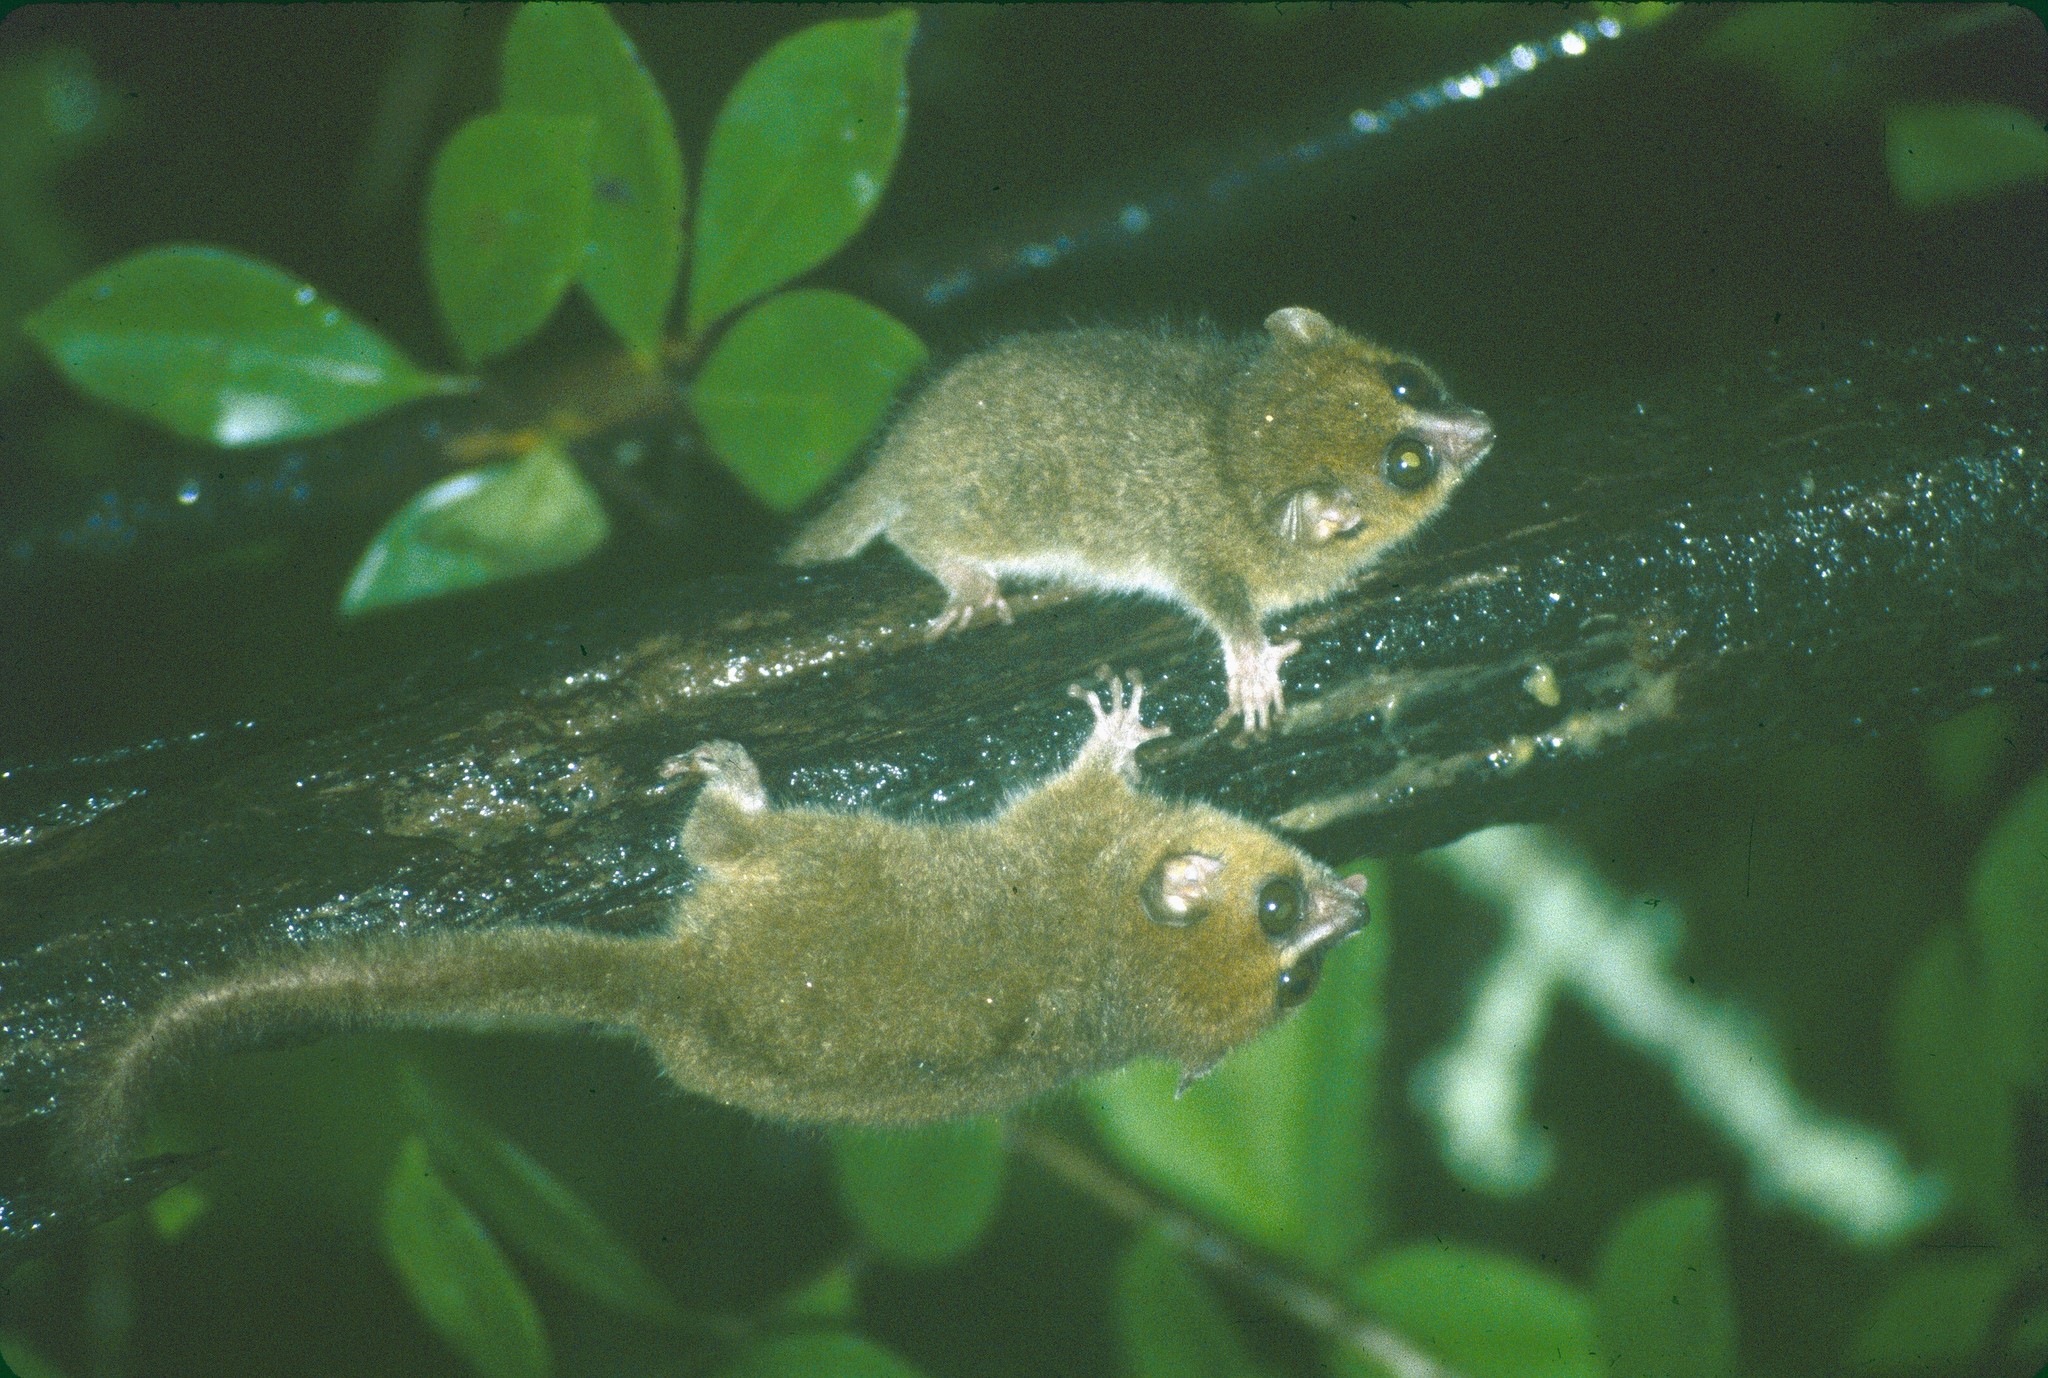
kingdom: Animalia
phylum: Chordata
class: Mammalia
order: Primates
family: Cheirogaleidae
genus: Microcebus
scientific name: Microcebus rufus
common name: Brown mouse lemur
